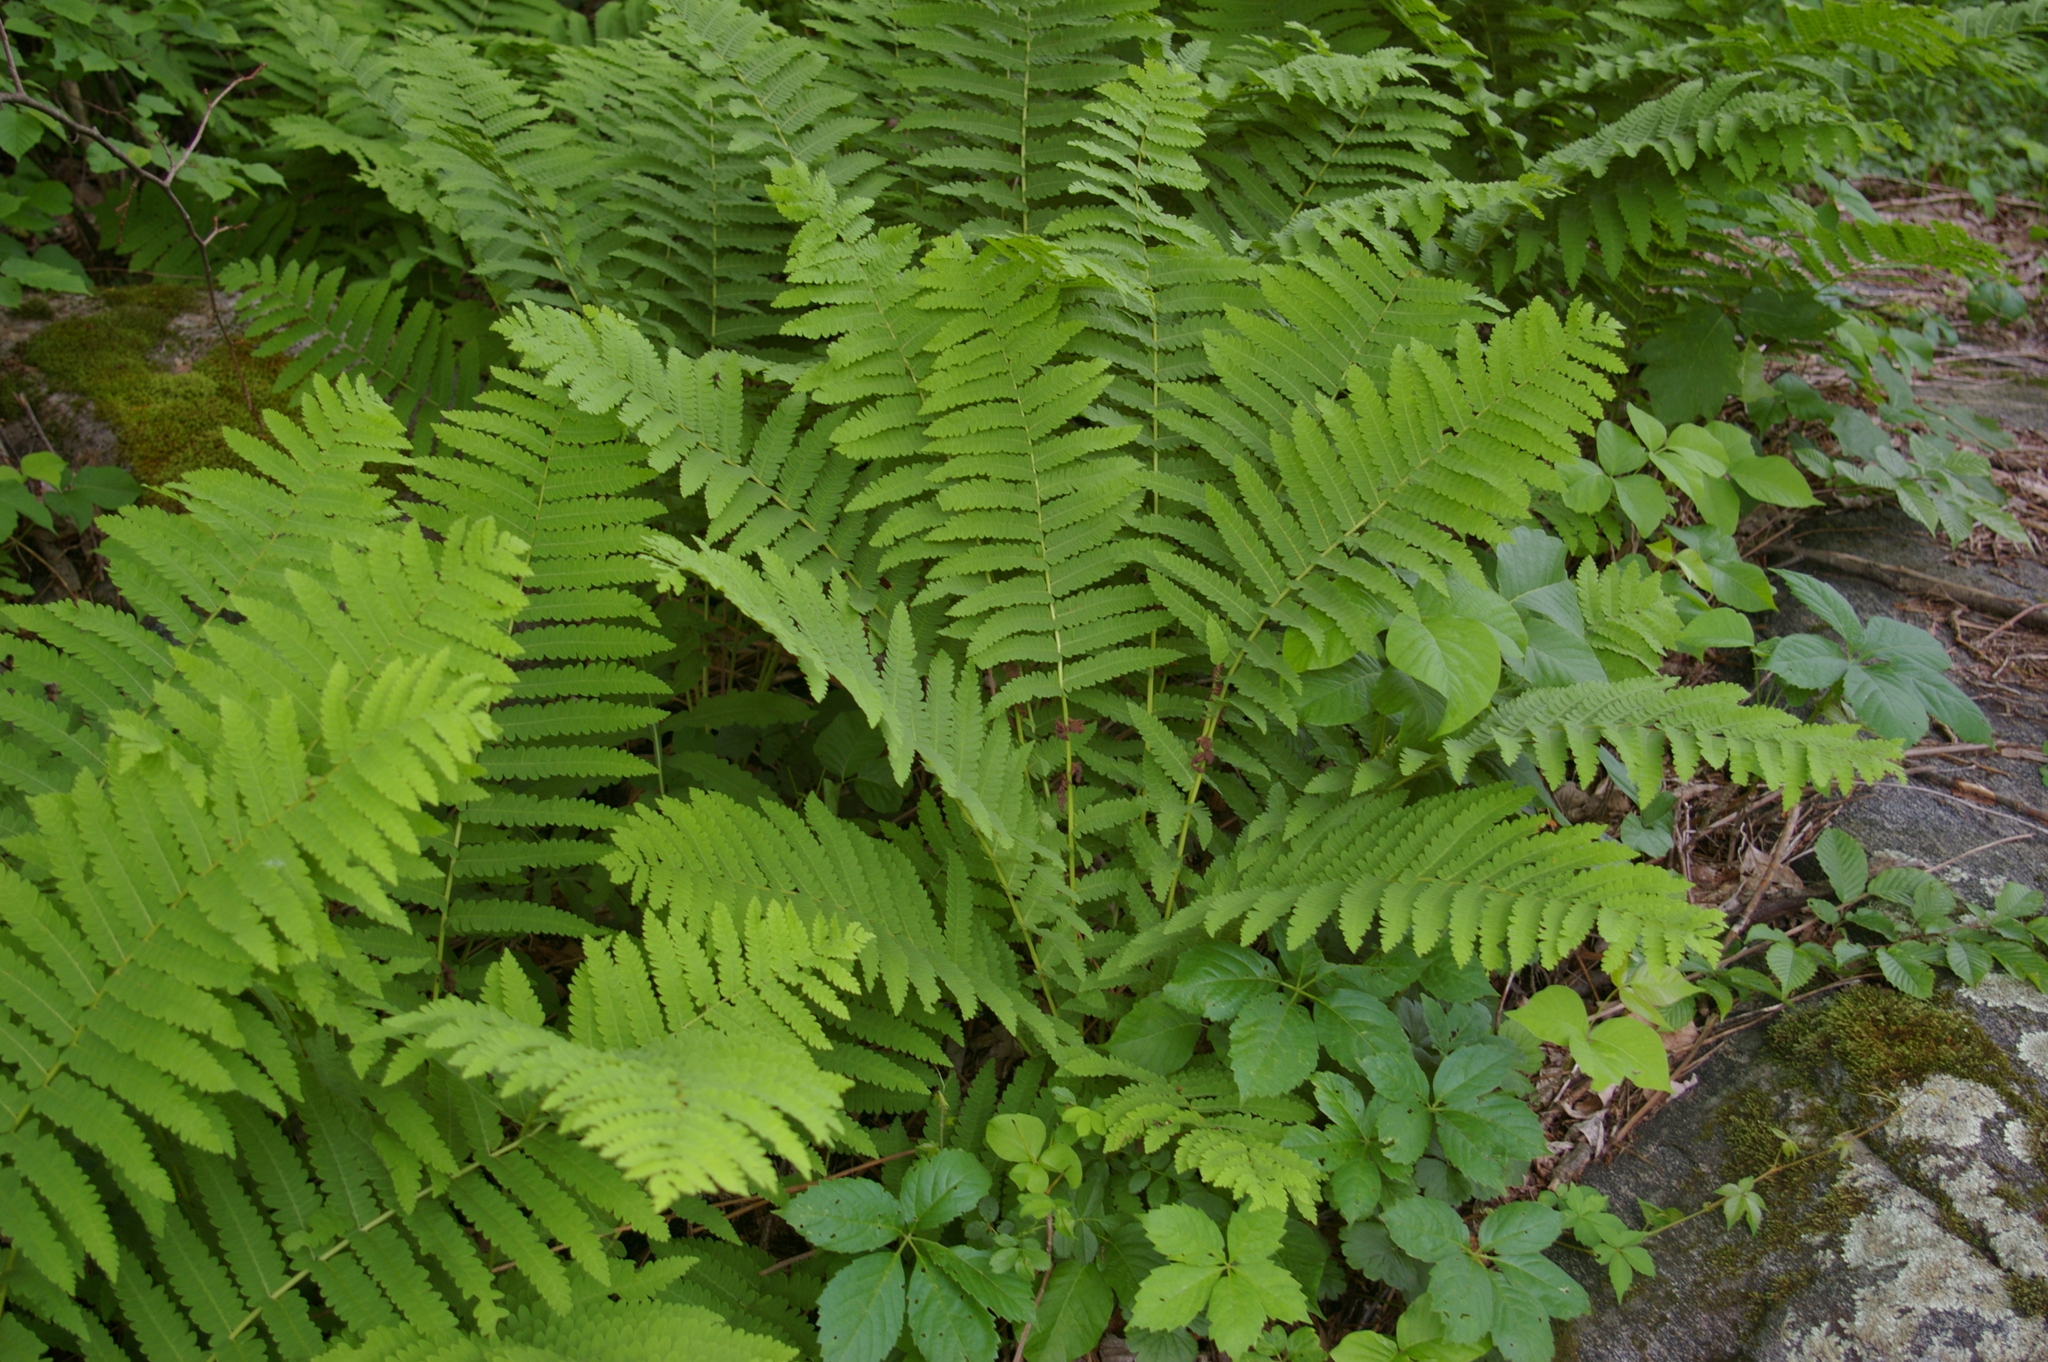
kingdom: Plantae
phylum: Tracheophyta
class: Polypodiopsida
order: Osmundales
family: Osmundaceae
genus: Claytosmunda
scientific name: Claytosmunda claytoniana
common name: Clayton's fern
